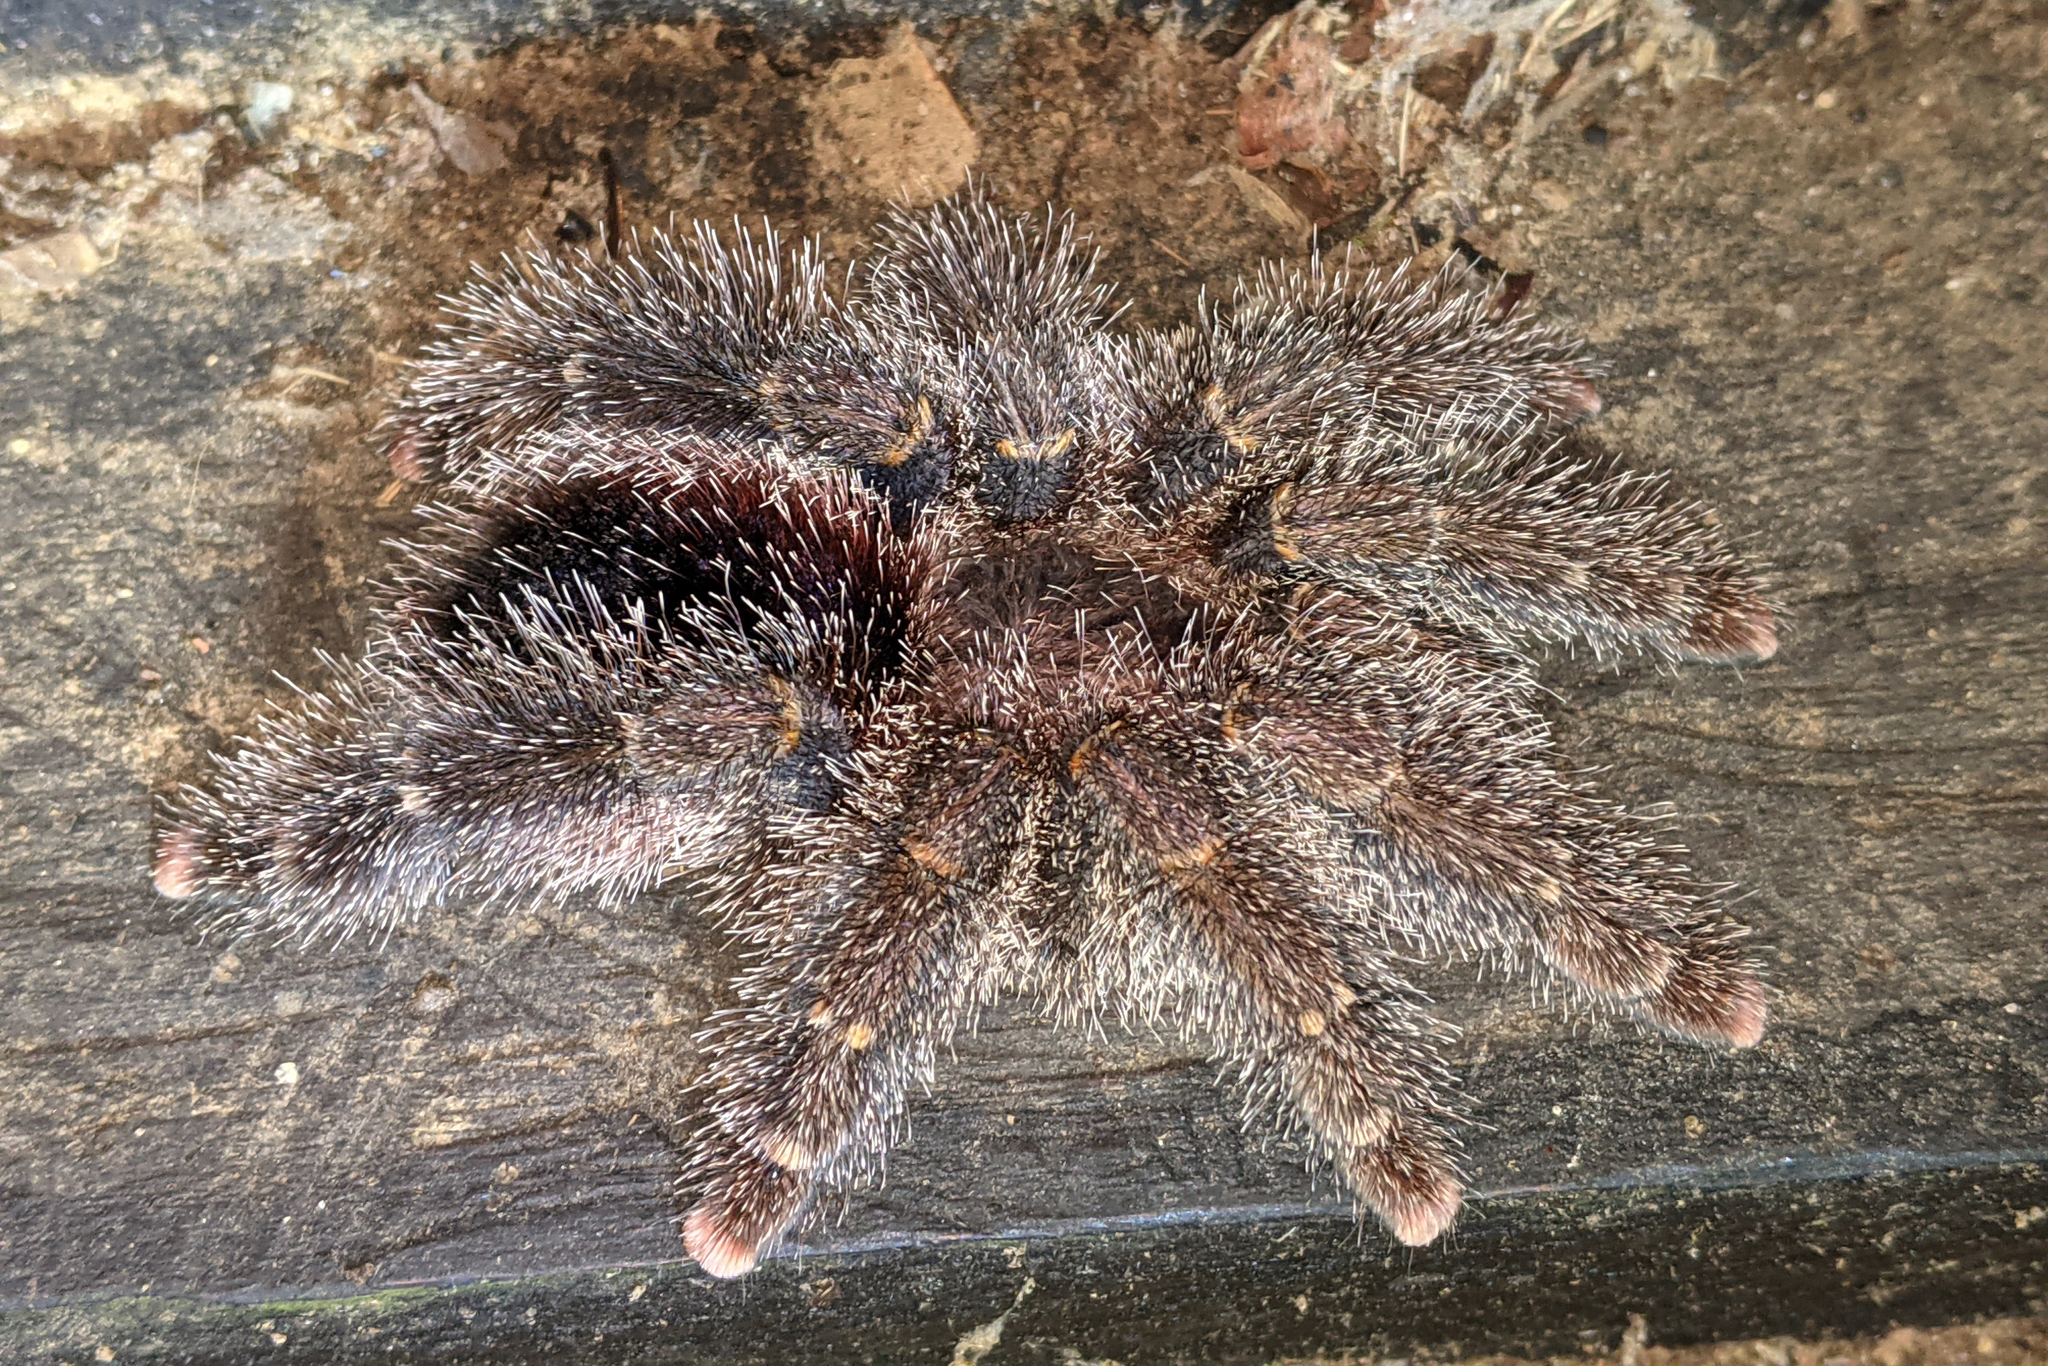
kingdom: Animalia
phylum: Arthropoda
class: Arachnida
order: Araneae
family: Theraphosidae
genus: Avicularia
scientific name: Avicularia juruensis
